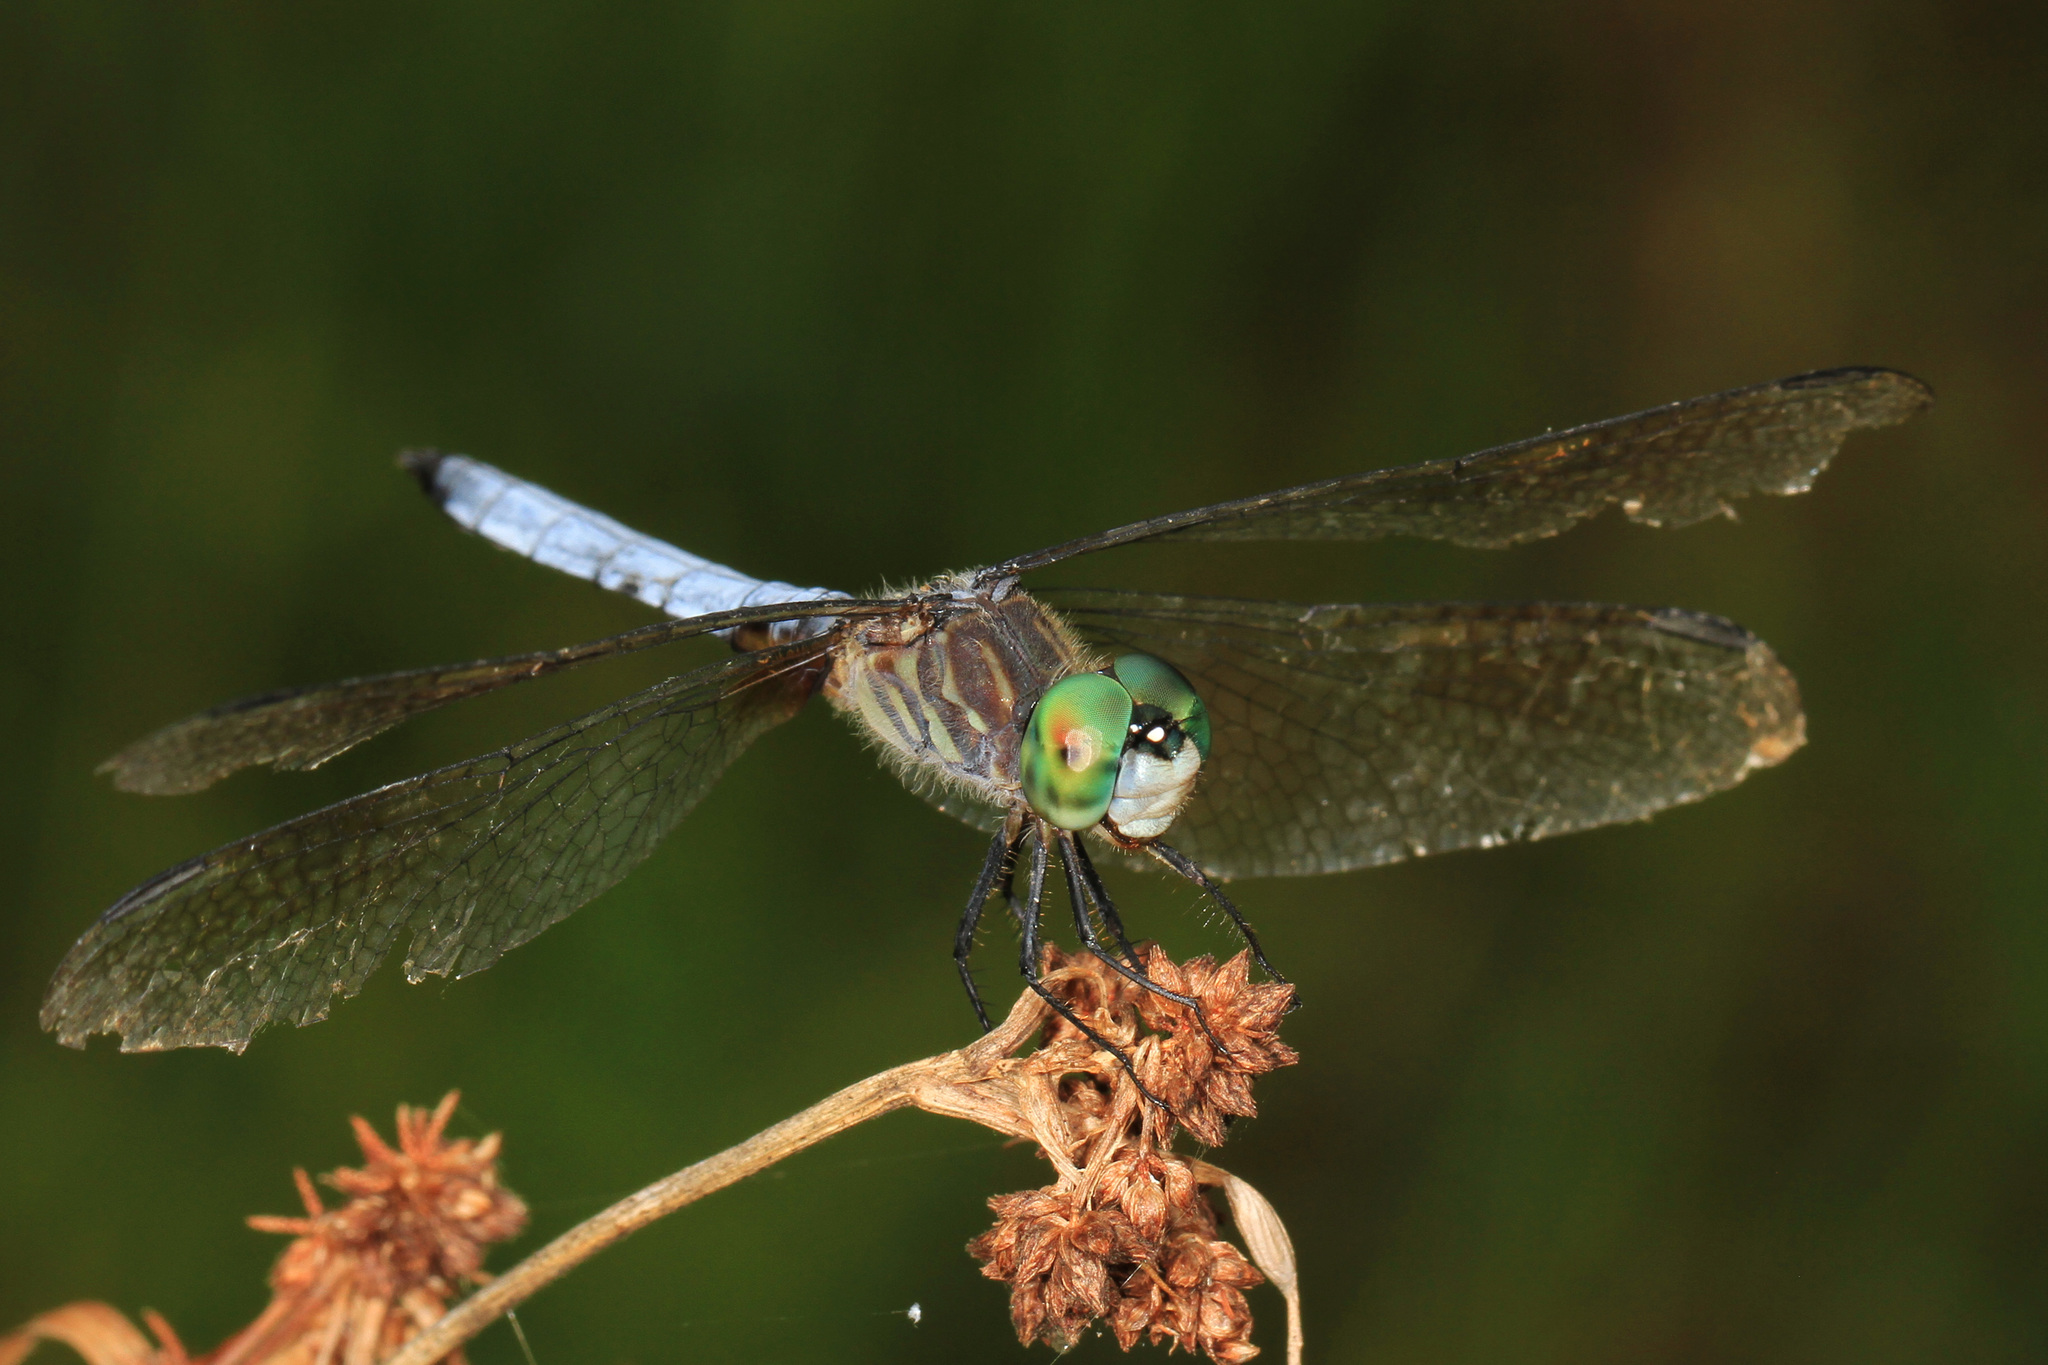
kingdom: Animalia
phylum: Arthropoda
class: Insecta
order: Odonata
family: Libellulidae
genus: Pachydiplax
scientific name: Pachydiplax longipennis
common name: Blue dasher
